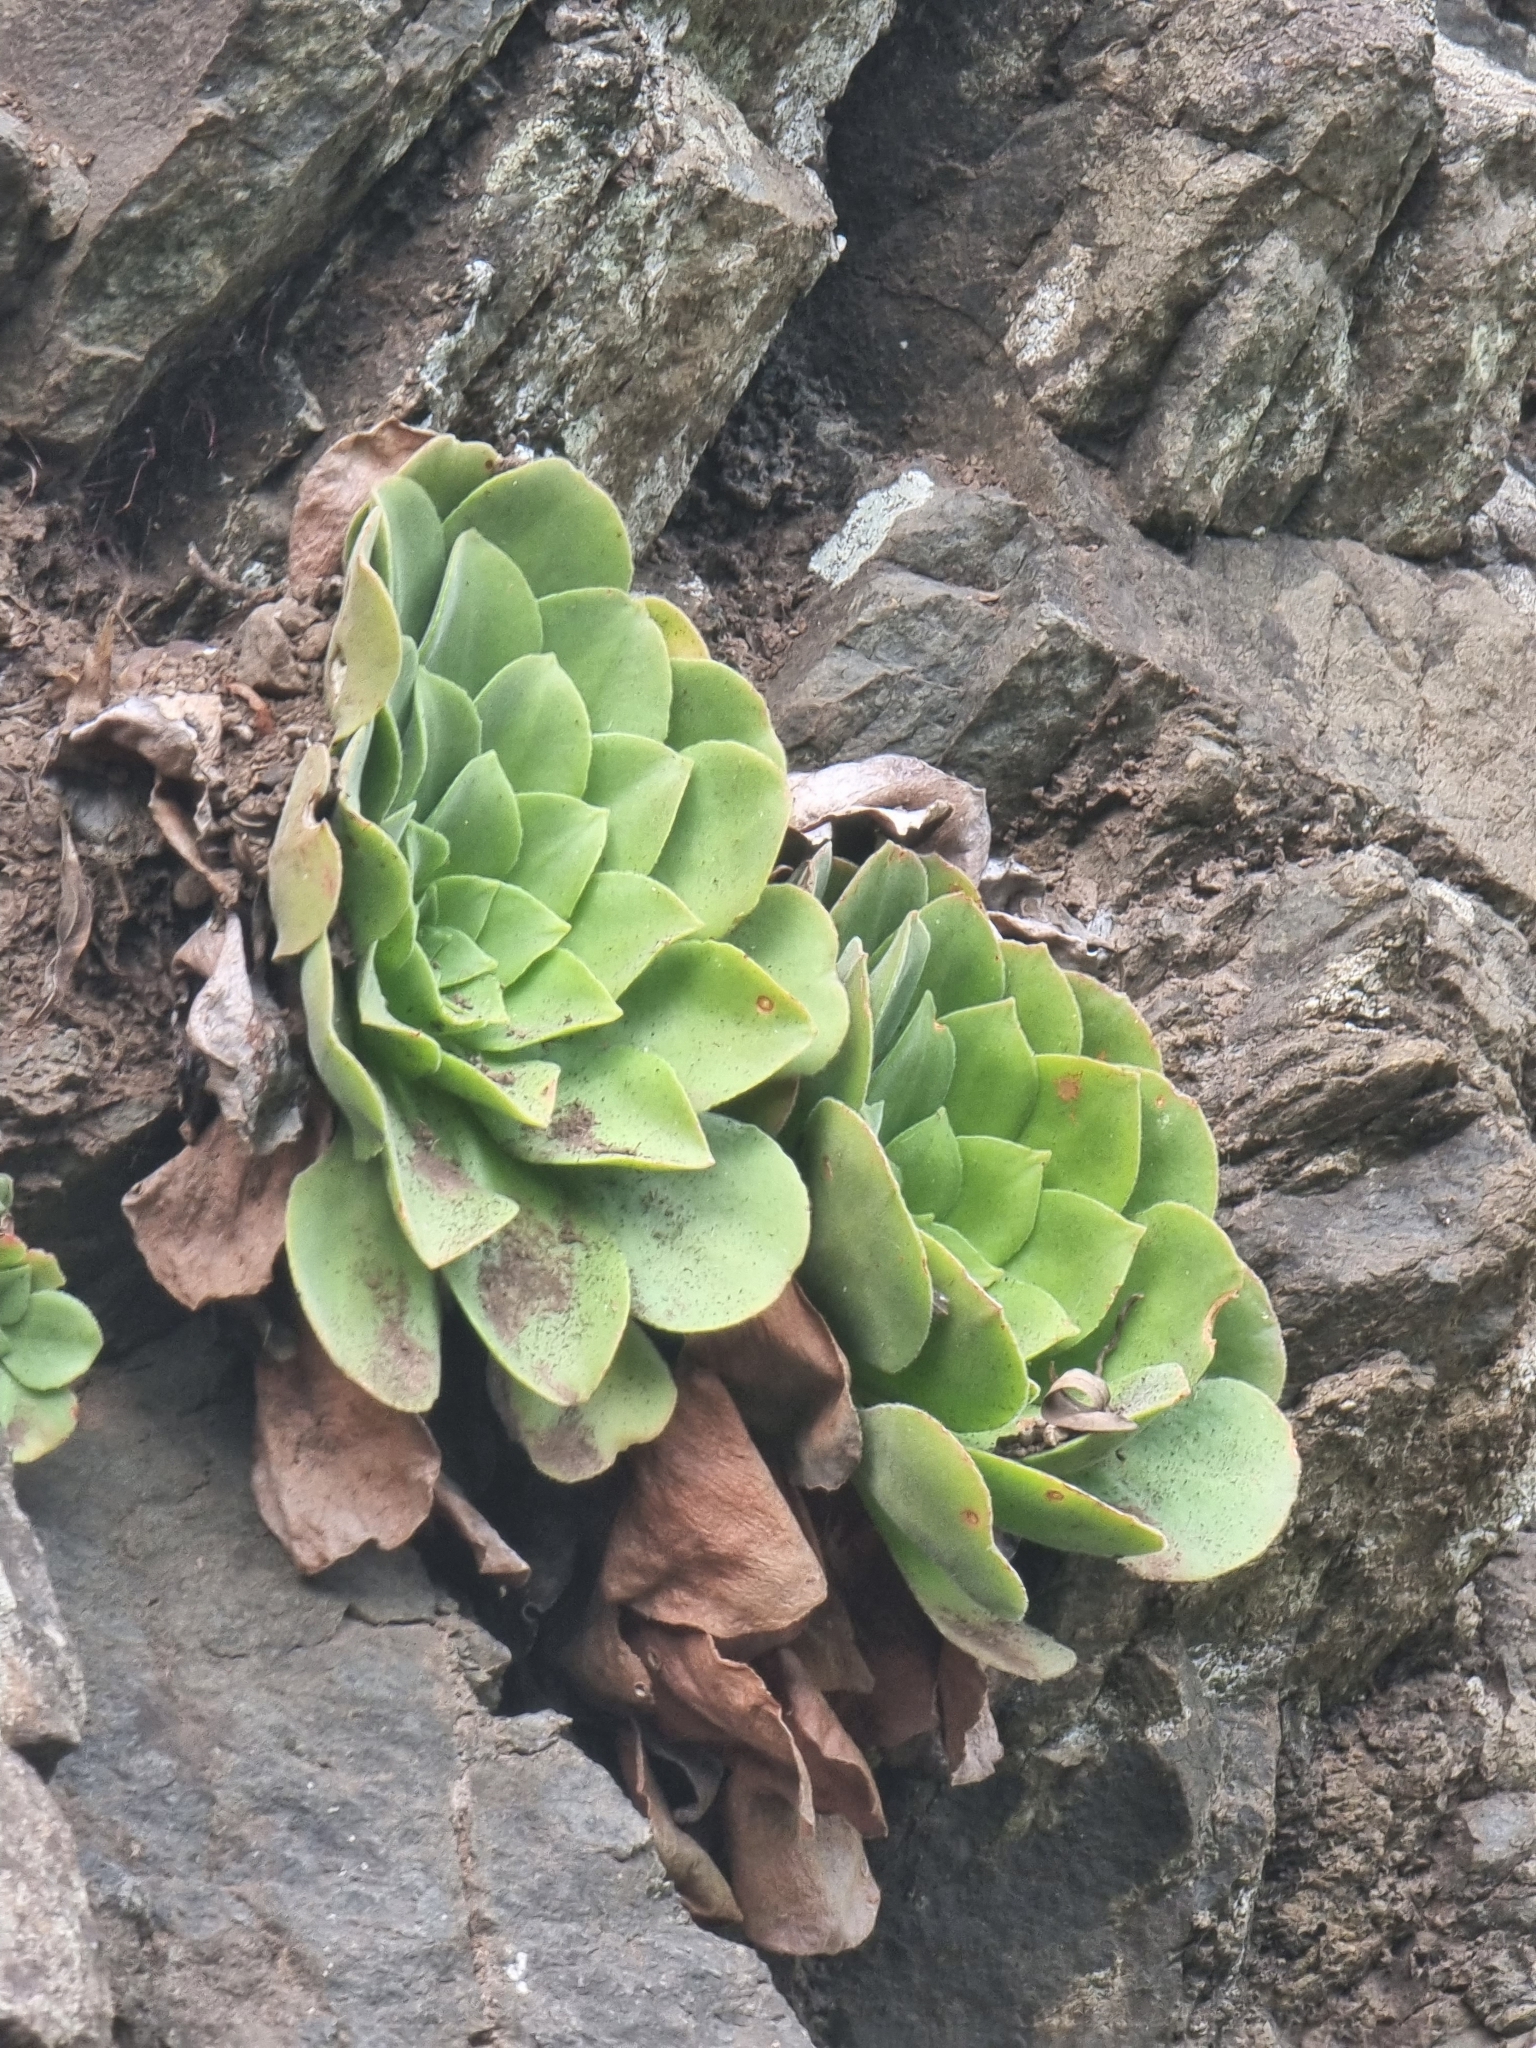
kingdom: Plantae
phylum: Tracheophyta
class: Magnoliopsida
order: Saxifragales
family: Crassulaceae
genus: Aeonium
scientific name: Aeonium glandulosum
